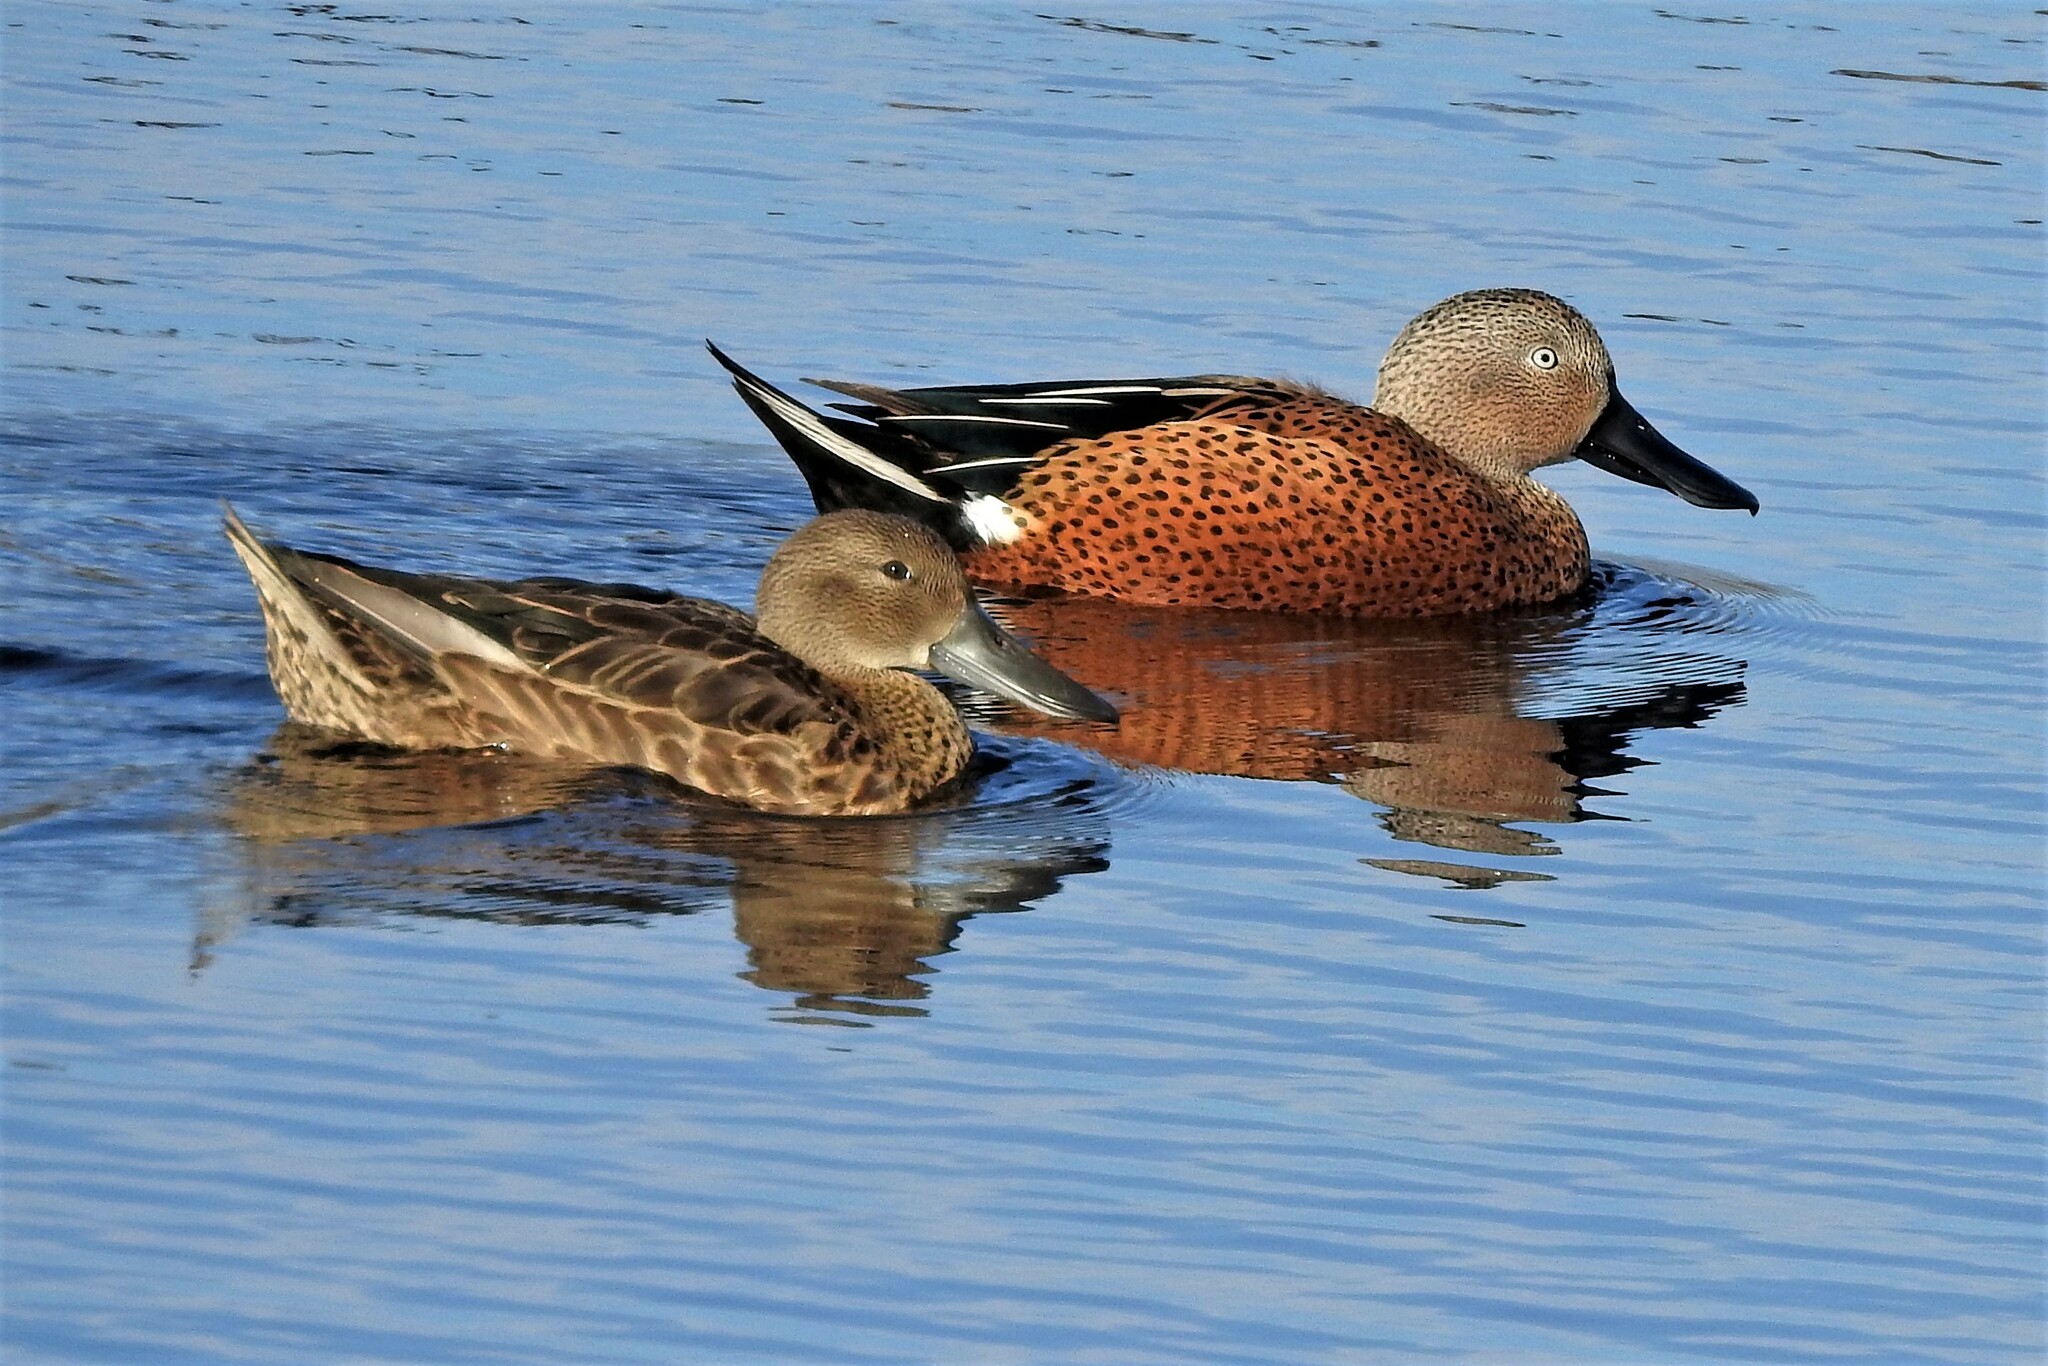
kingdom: Animalia
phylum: Chordata
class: Aves
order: Anseriformes
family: Anatidae
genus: Spatula
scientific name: Spatula platalea
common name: Red shoveler
